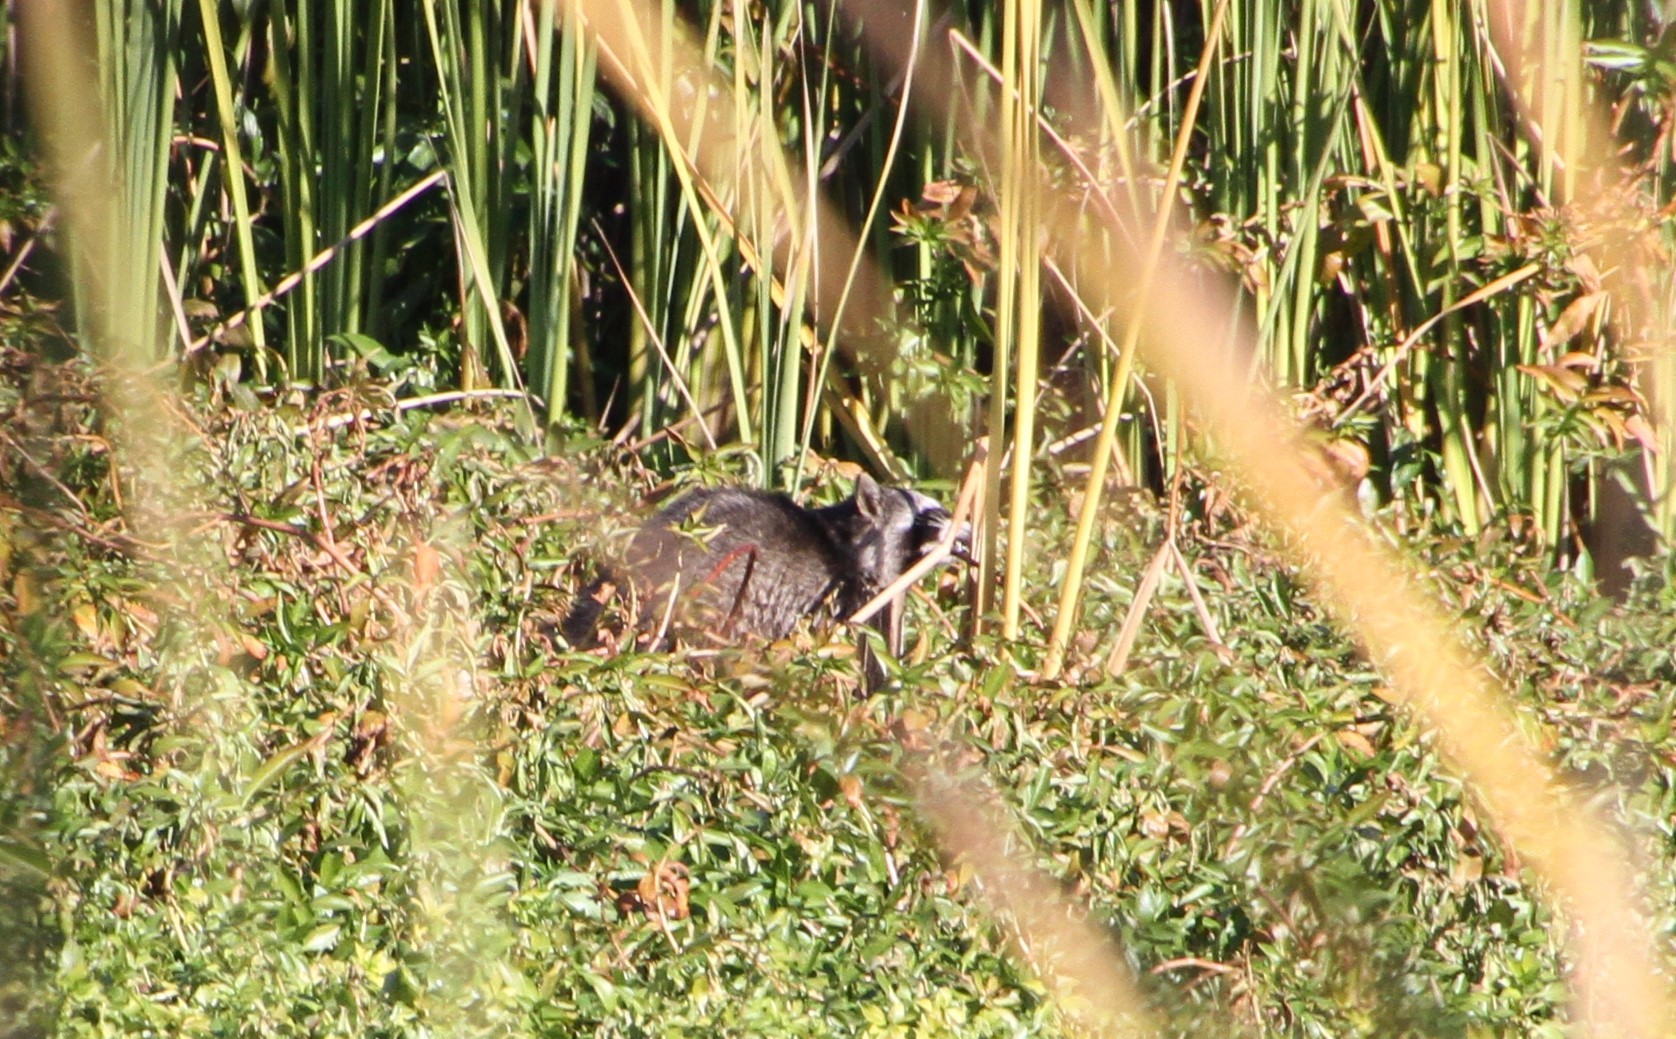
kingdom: Animalia
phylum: Chordata
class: Mammalia
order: Carnivora
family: Procyonidae
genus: Procyon
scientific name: Procyon lotor
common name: Raccoon
